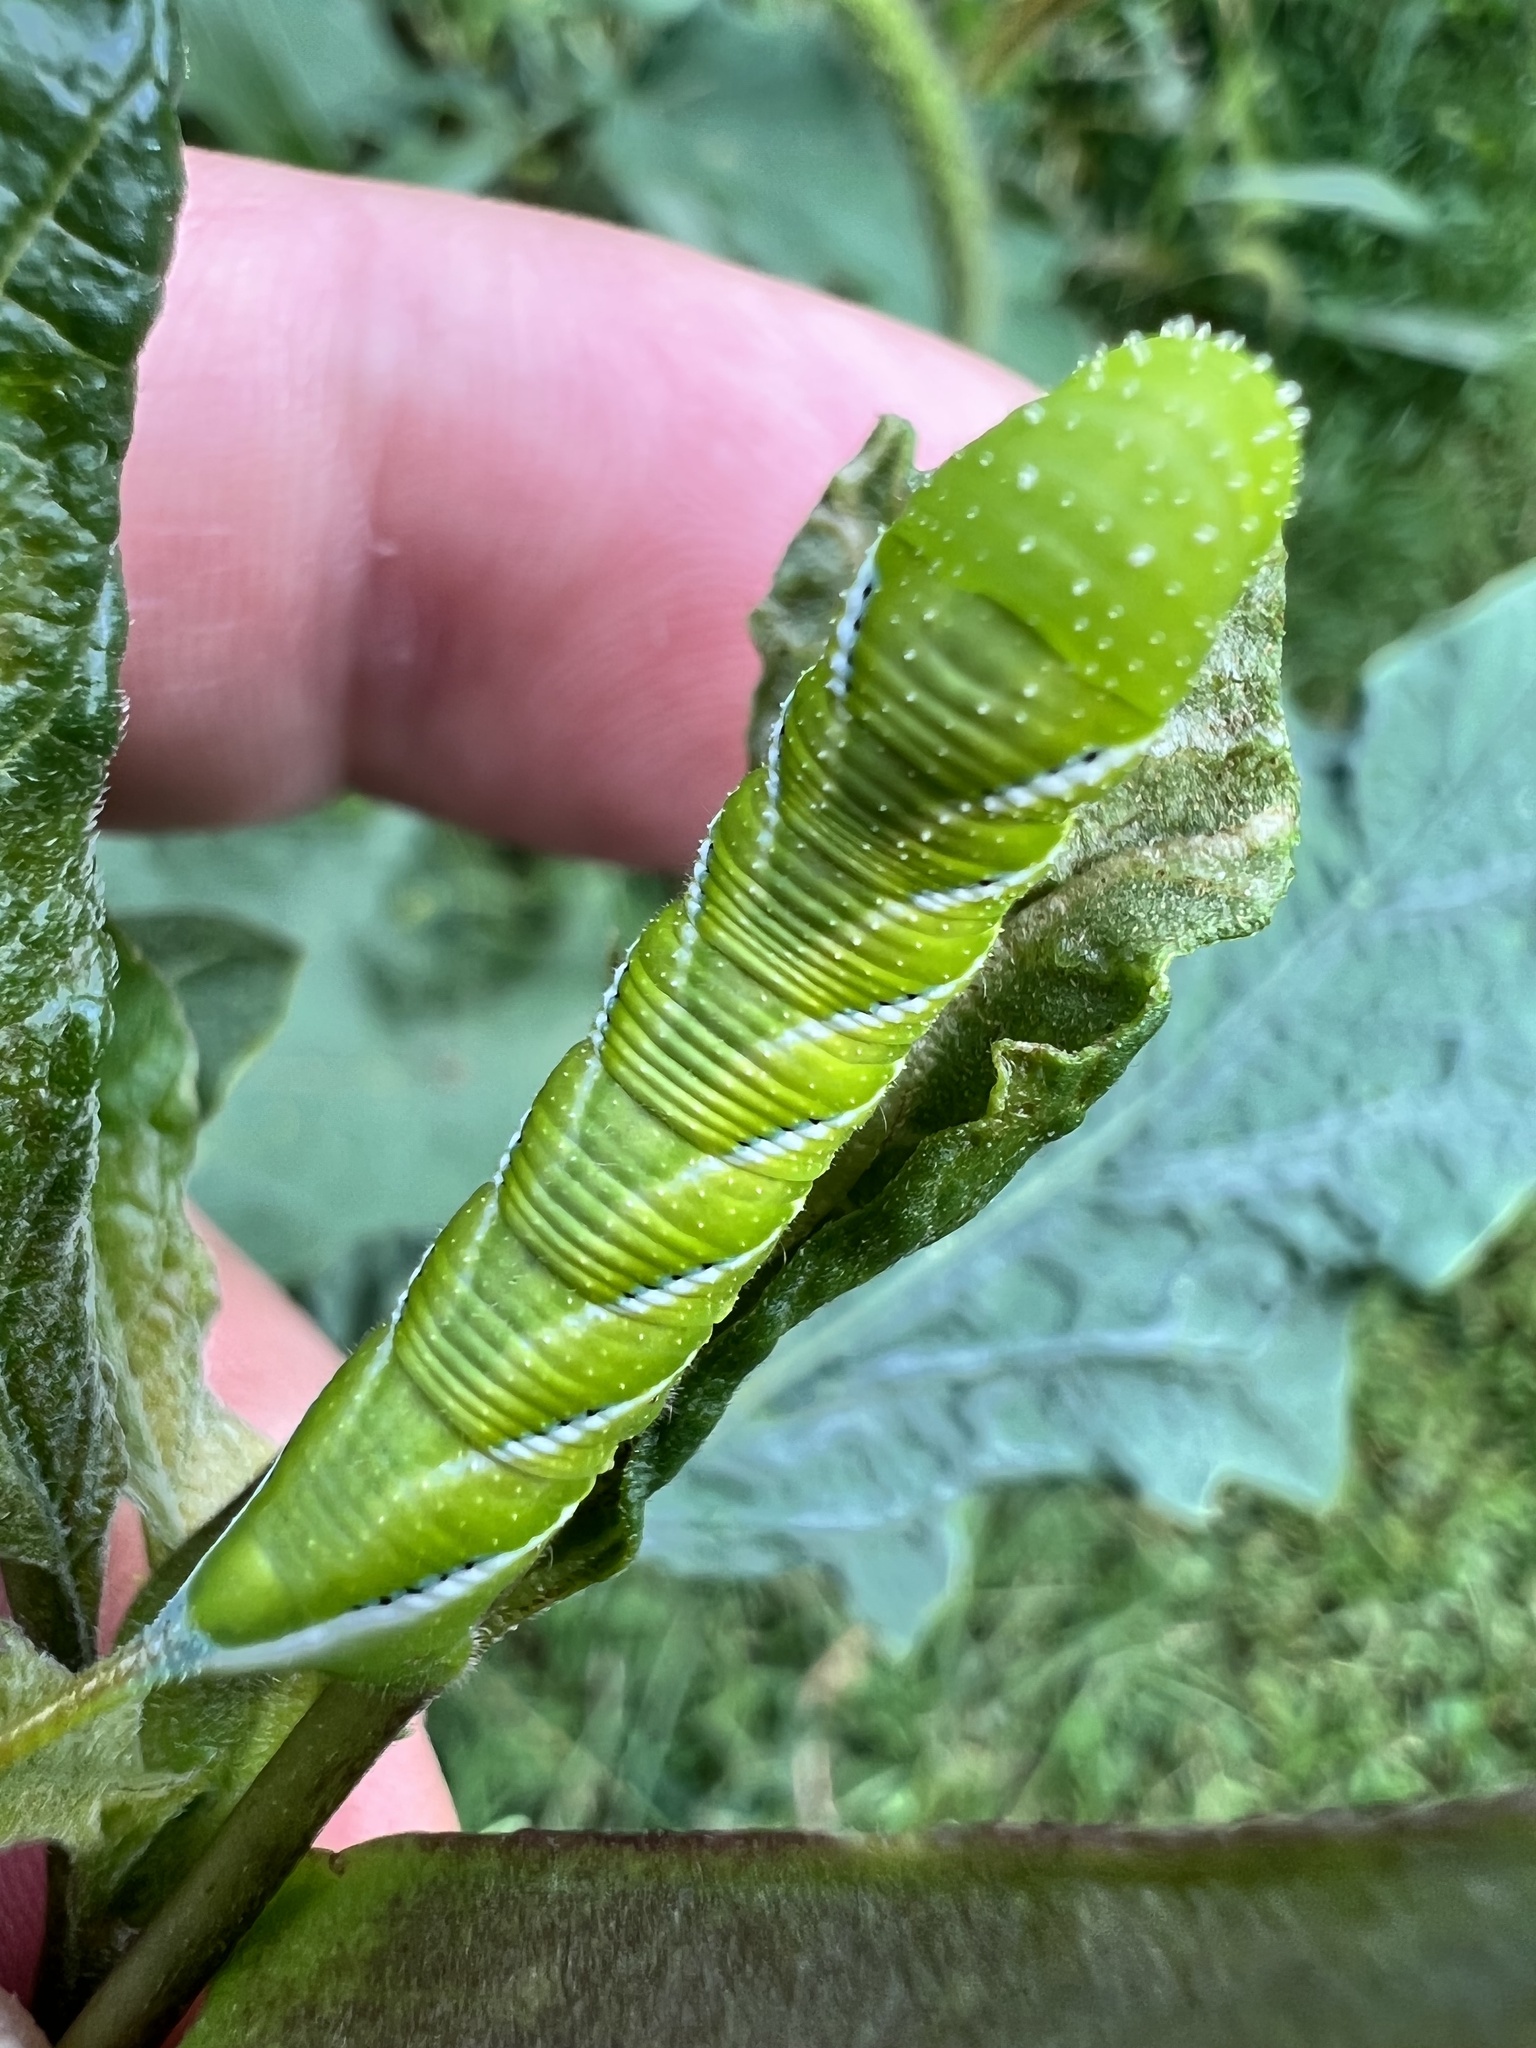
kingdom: Animalia
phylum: Arthropoda
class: Insecta
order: Lepidoptera
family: Sphingidae
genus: Manduca
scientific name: Manduca sexta
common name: Carolina sphinx
